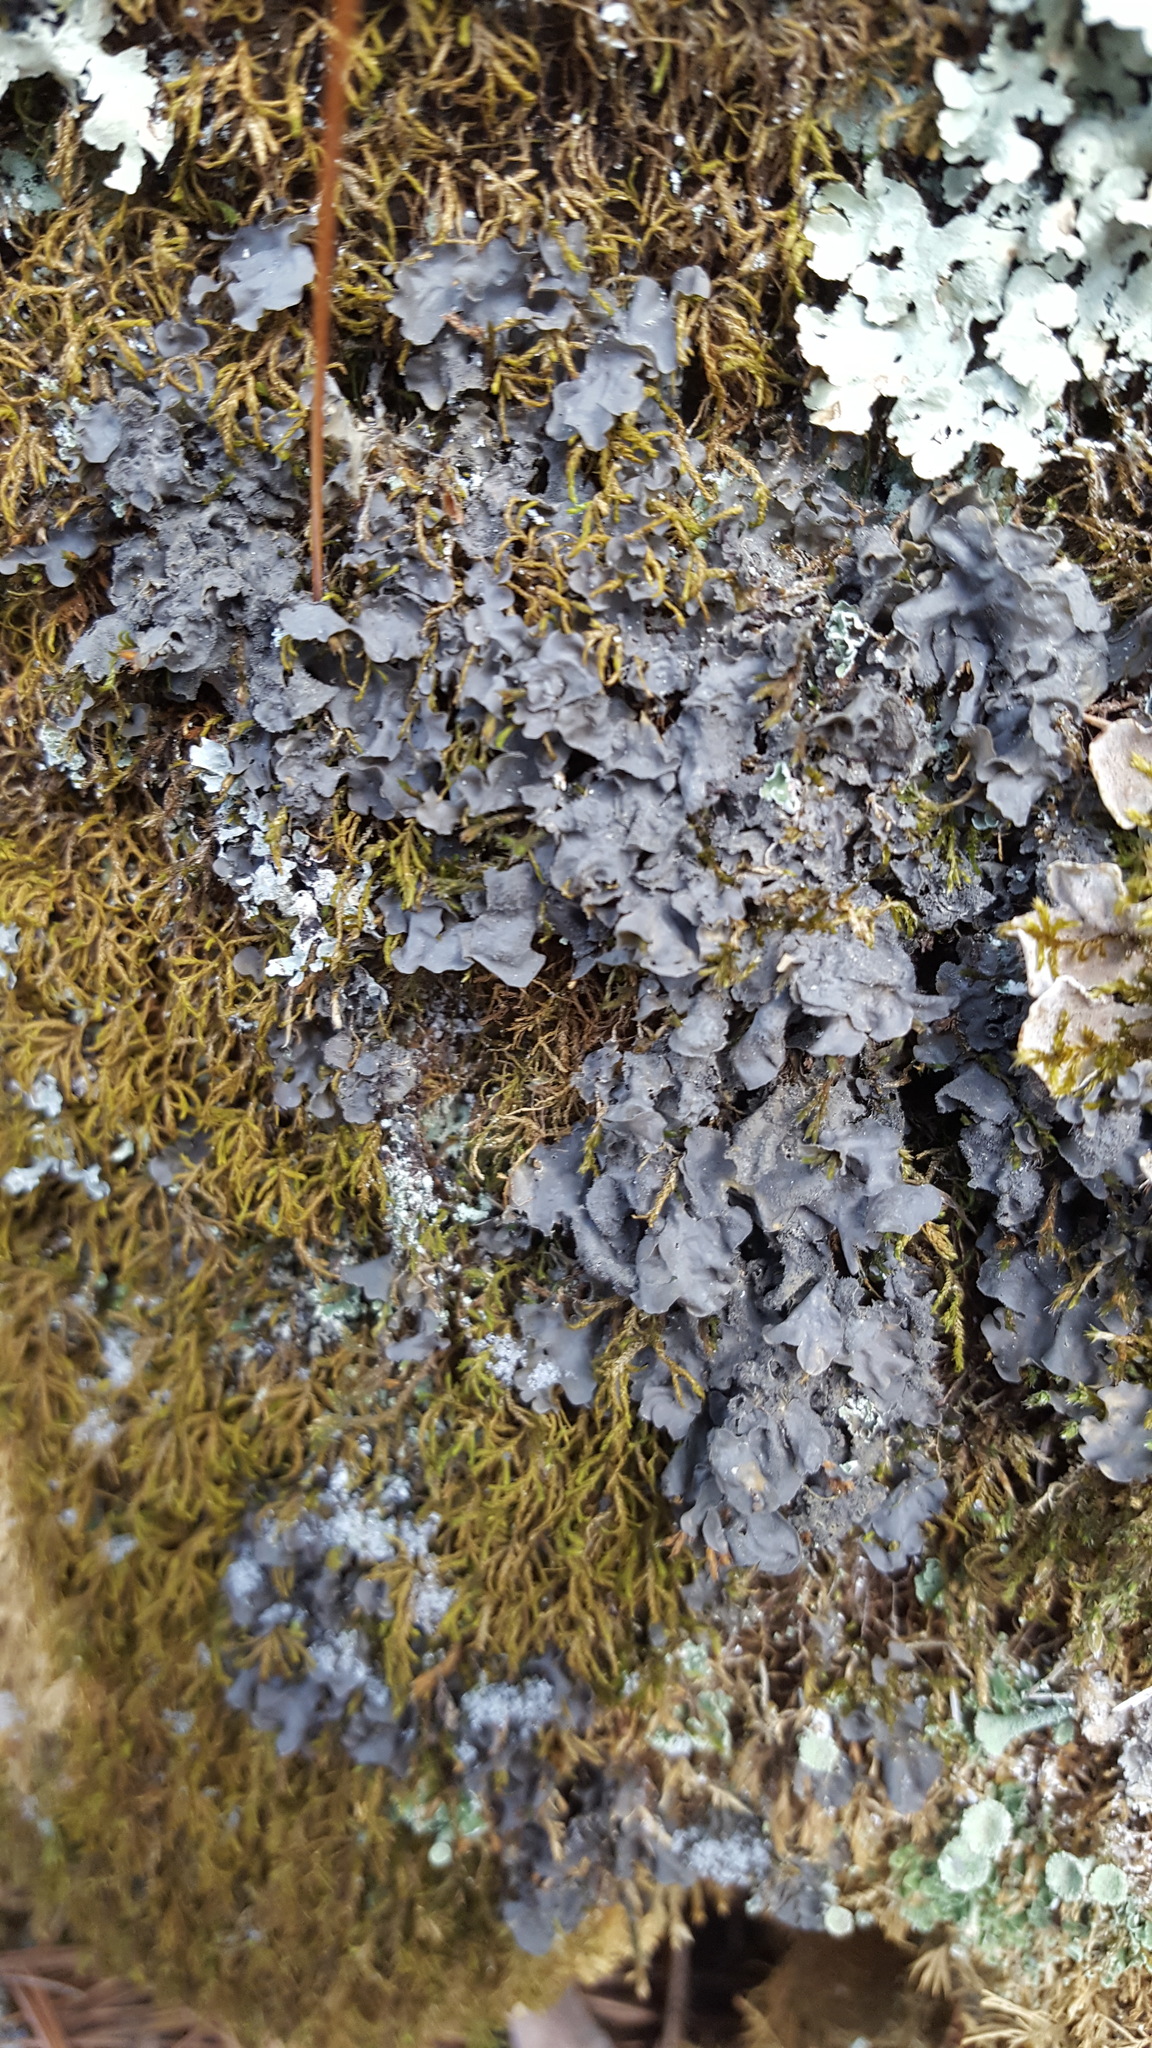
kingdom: Fungi
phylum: Ascomycota
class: Lecanoromycetes
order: Peltigerales
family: Collemataceae
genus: Leptogium
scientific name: Leptogium cyanescens
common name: Blue jellyskin
